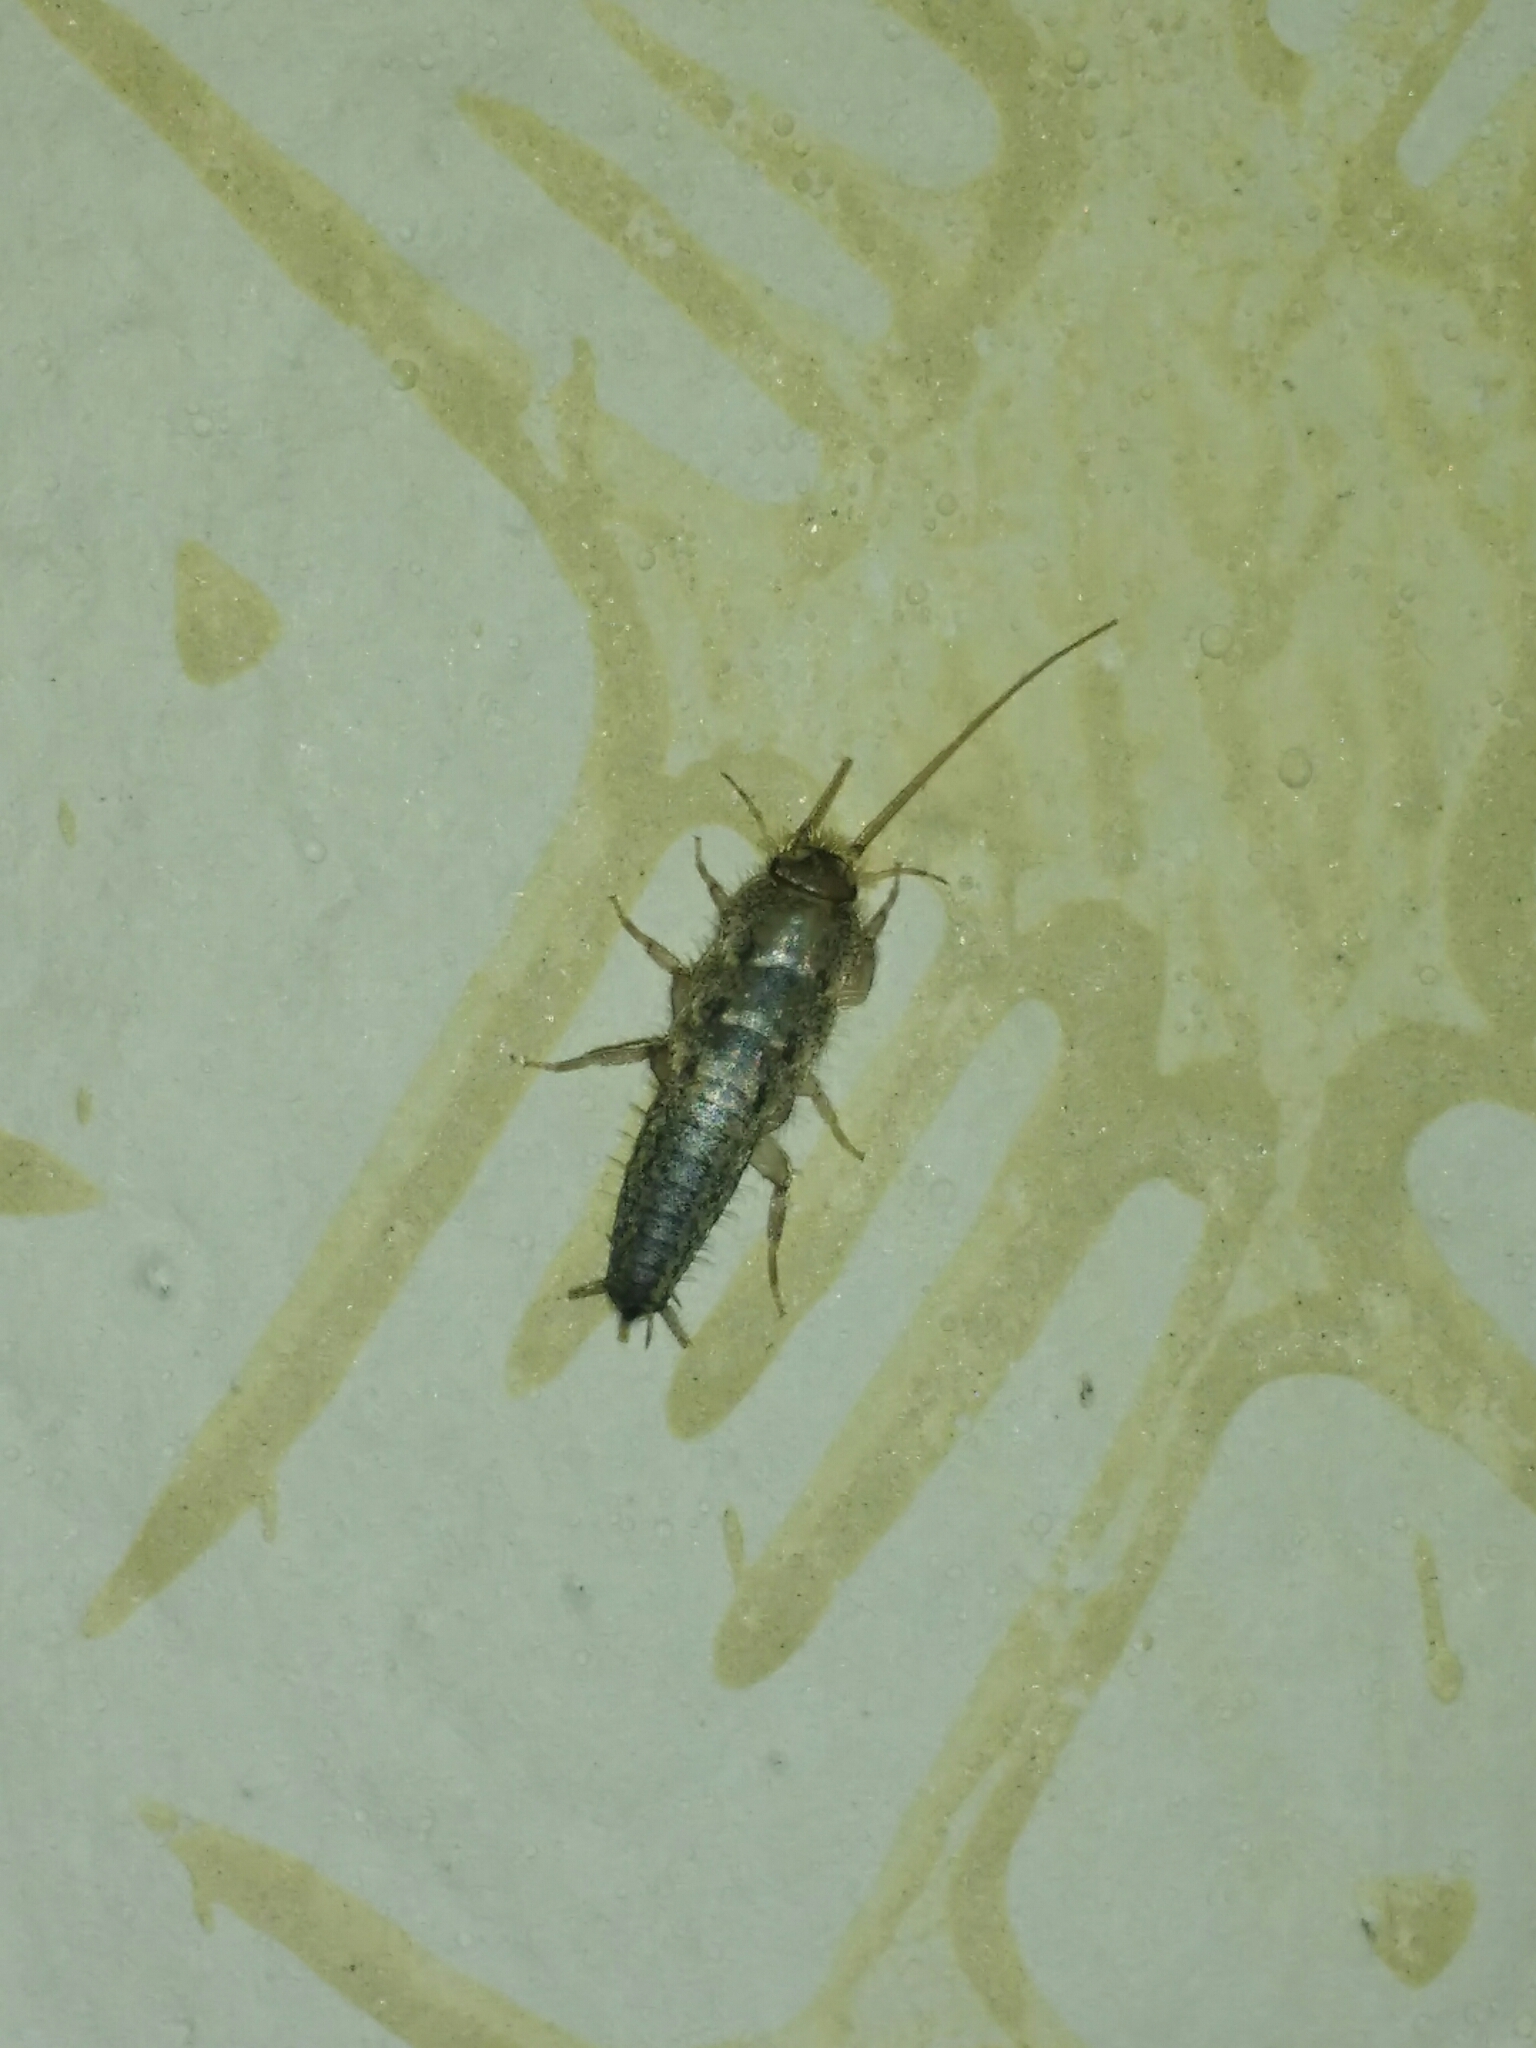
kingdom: Animalia
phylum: Arthropoda
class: Insecta
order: Zygentoma
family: Lepismatidae
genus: Ctenolepisma
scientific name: Ctenolepisma lineata
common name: Four-lined silverfish
